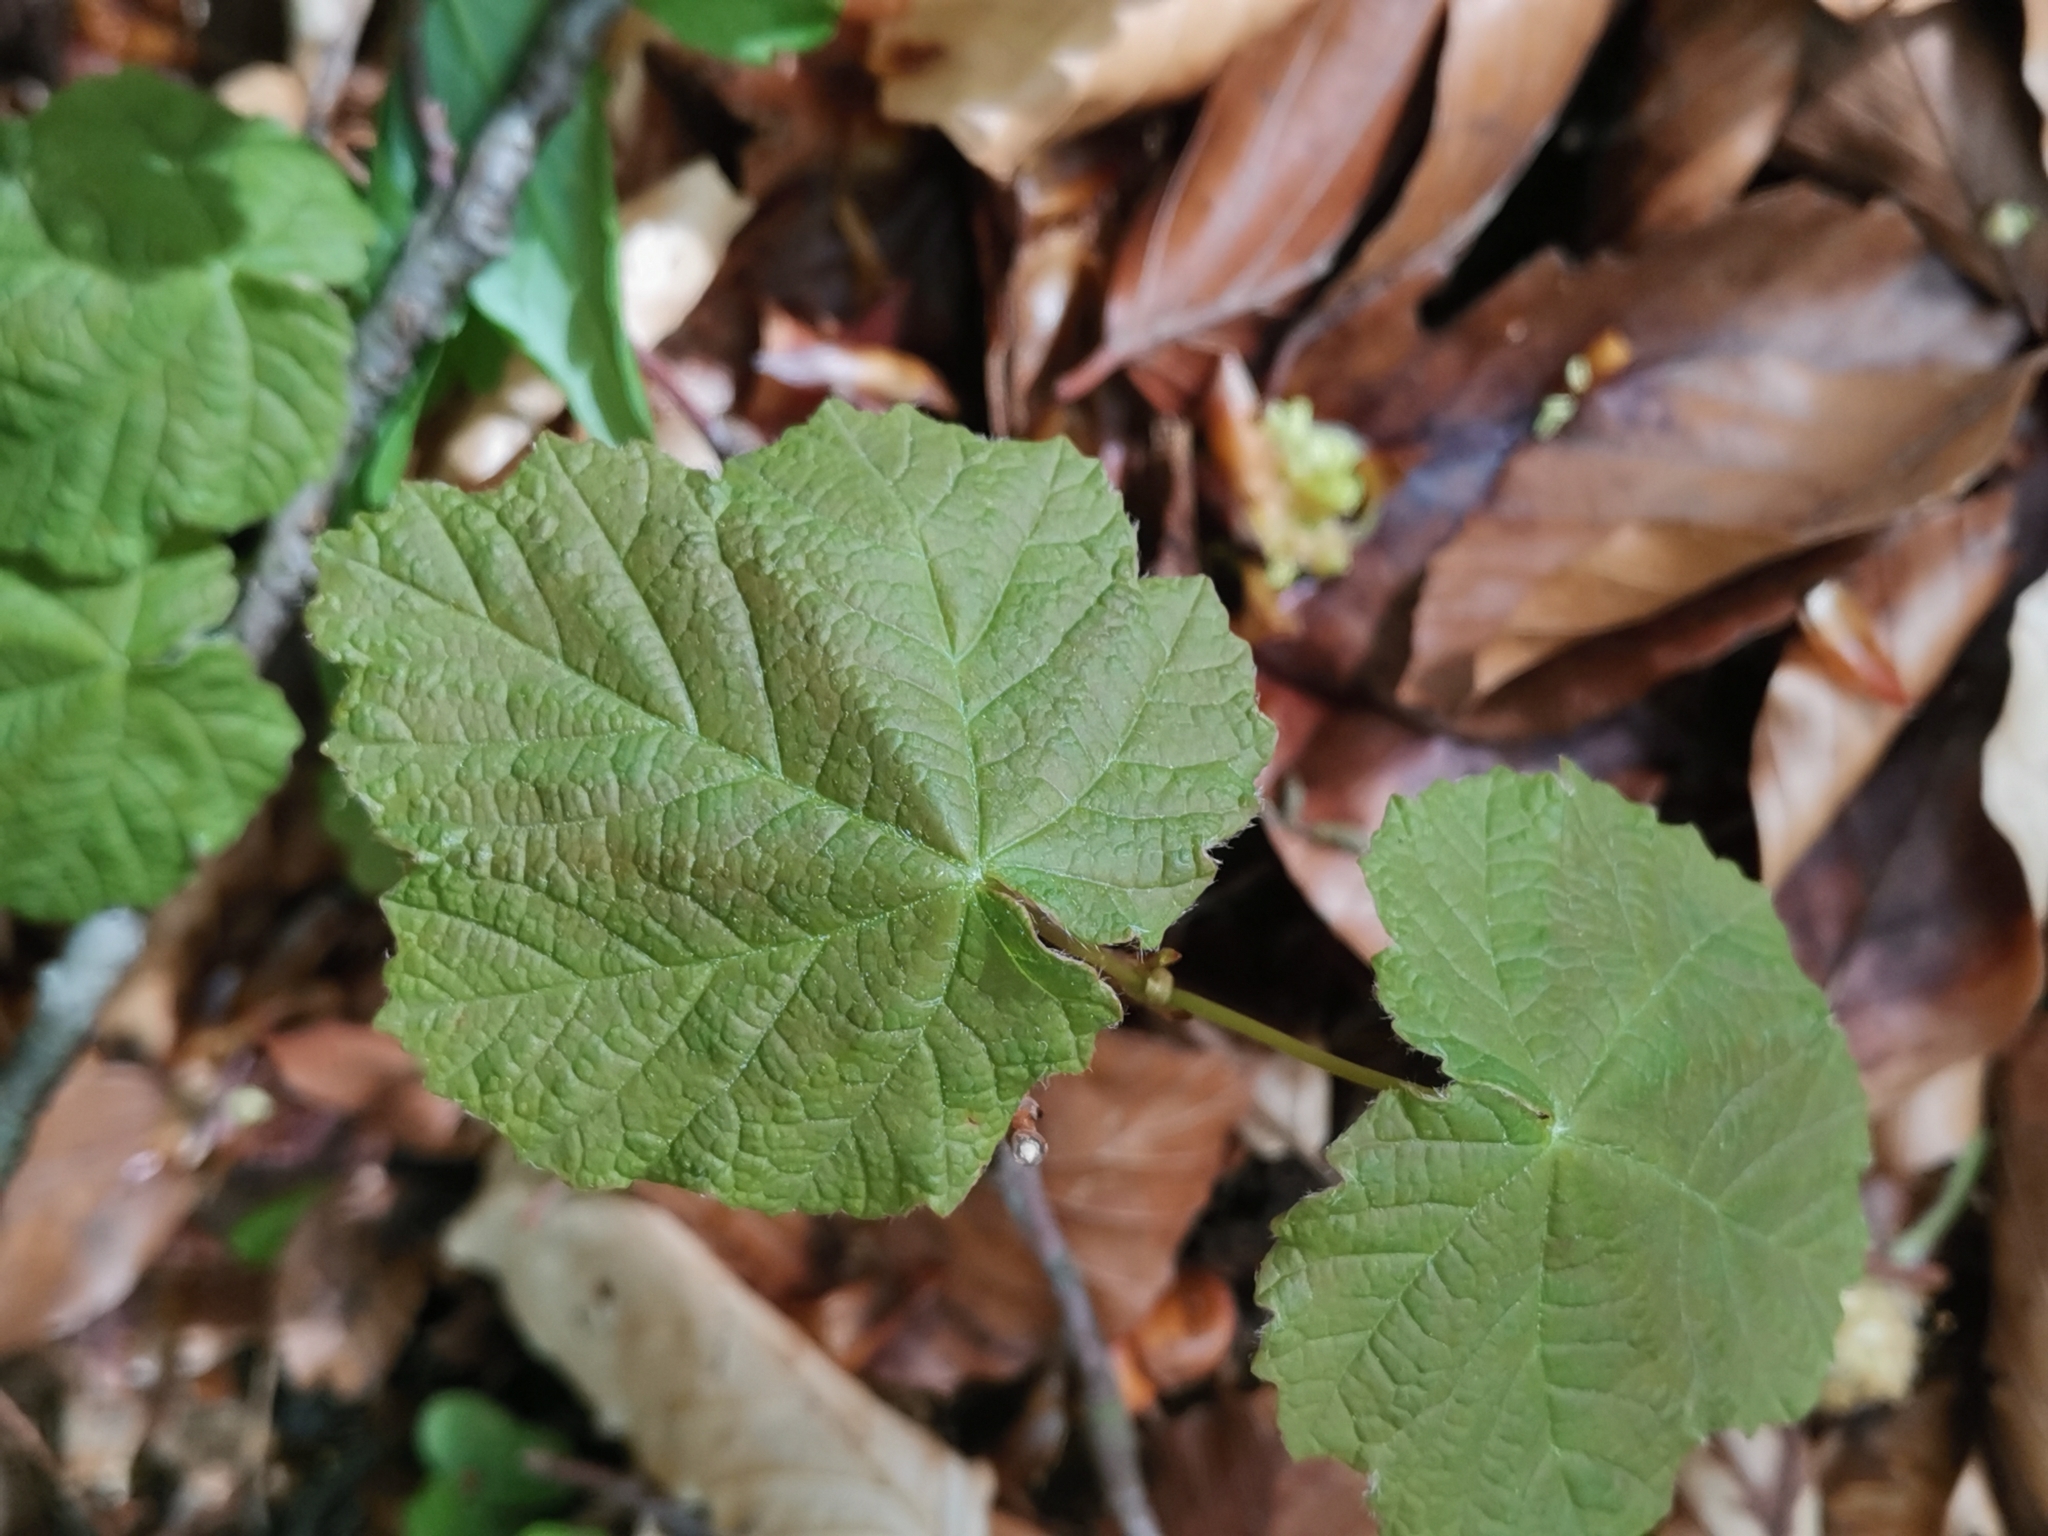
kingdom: Plantae
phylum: Tracheophyta
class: Magnoliopsida
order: Sapindales
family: Sapindaceae
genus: Acer
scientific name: Acer obtusatum
